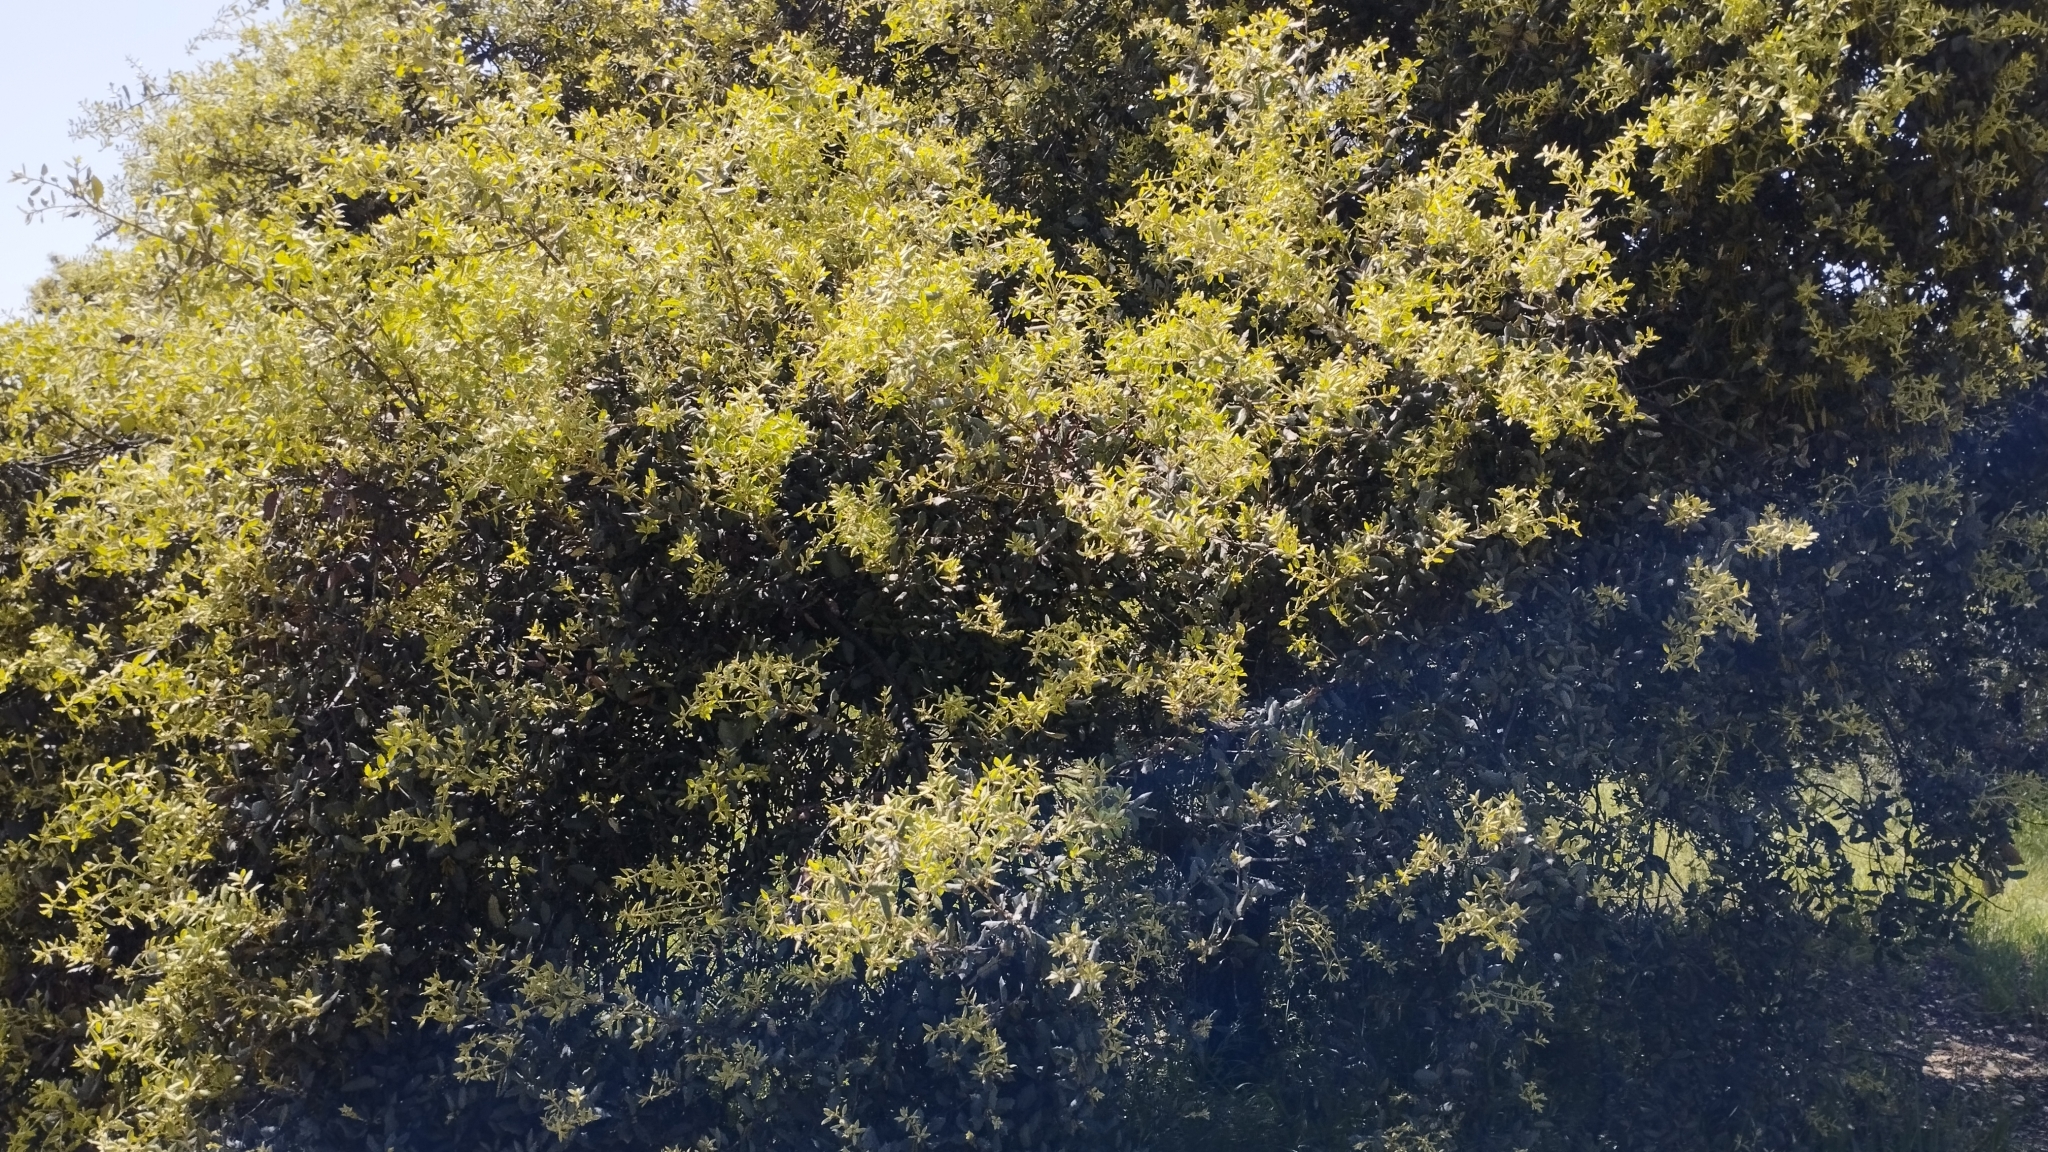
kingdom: Plantae
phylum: Tracheophyta
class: Magnoliopsida
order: Fagales
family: Fagaceae
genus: Quercus
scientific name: Quercus rotundifolia
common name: Holm oak
